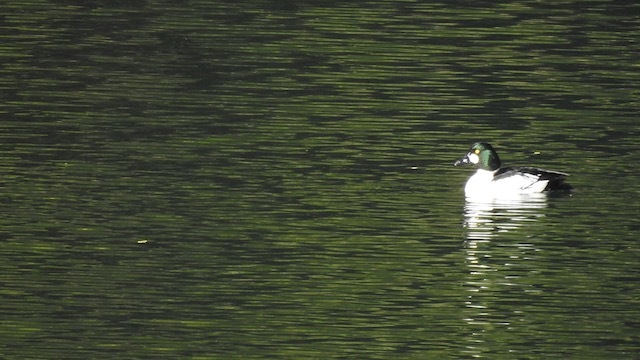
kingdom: Animalia
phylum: Chordata
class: Aves
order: Anseriformes
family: Anatidae
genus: Bucephala
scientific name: Bucephala clangula
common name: Common goldeneye
